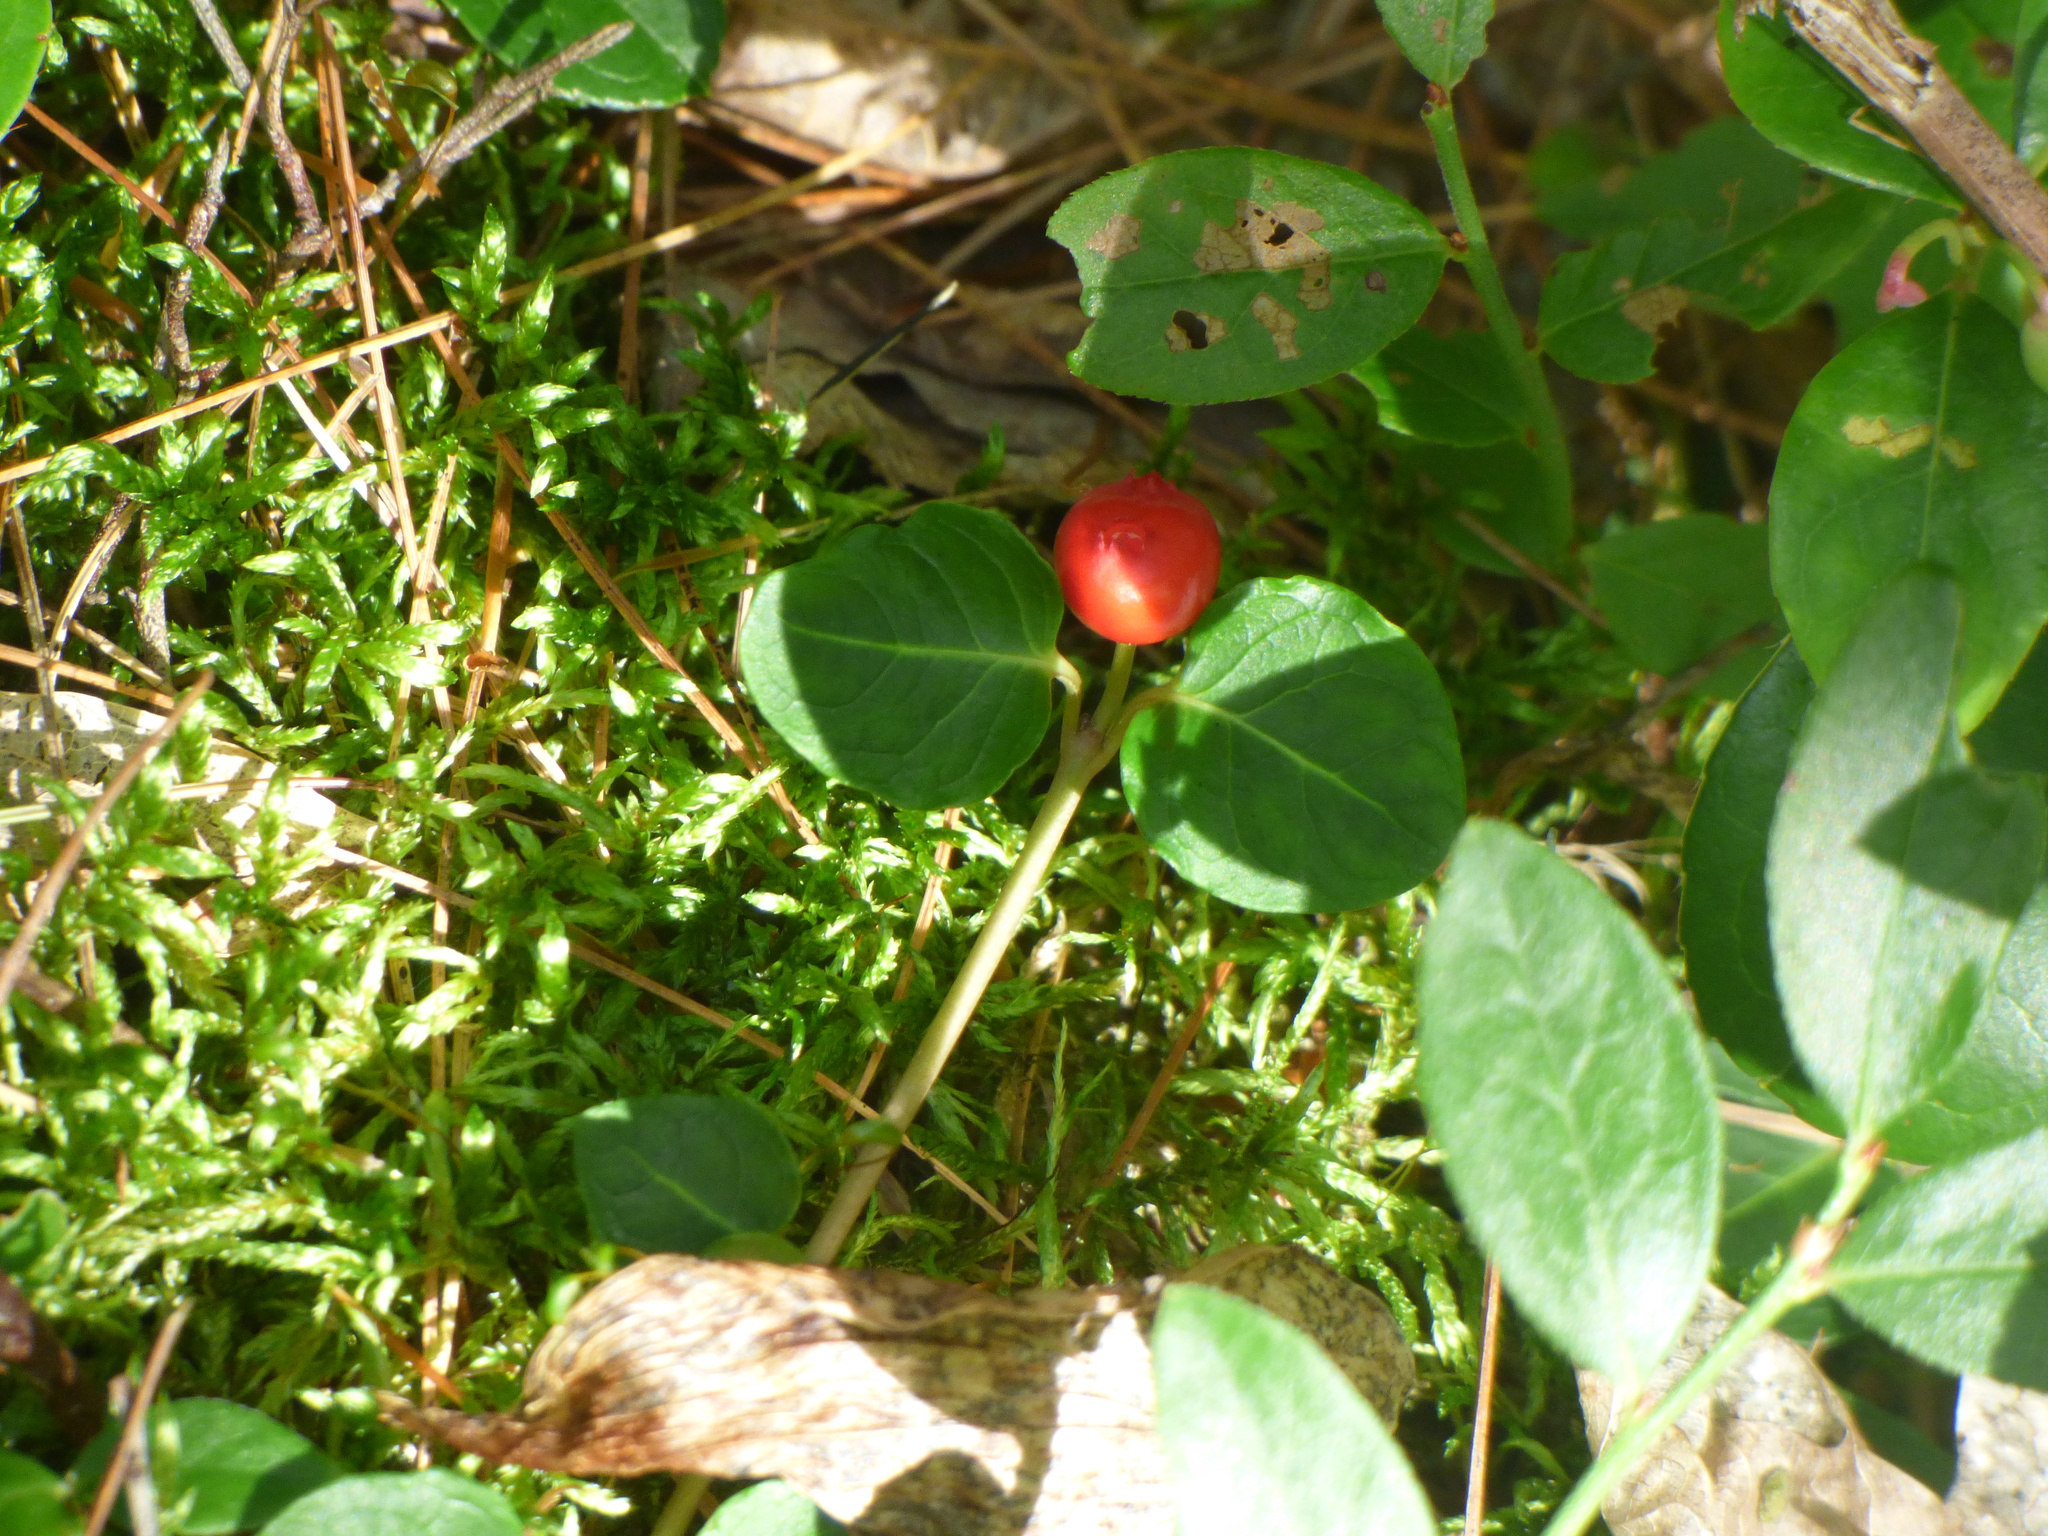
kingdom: Plantae
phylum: Tracheophyta
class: Magnoliopsida
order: Gentianales
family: Rubiaceae
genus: Mitchella
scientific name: Mitchella repens
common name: Partridge-berry
